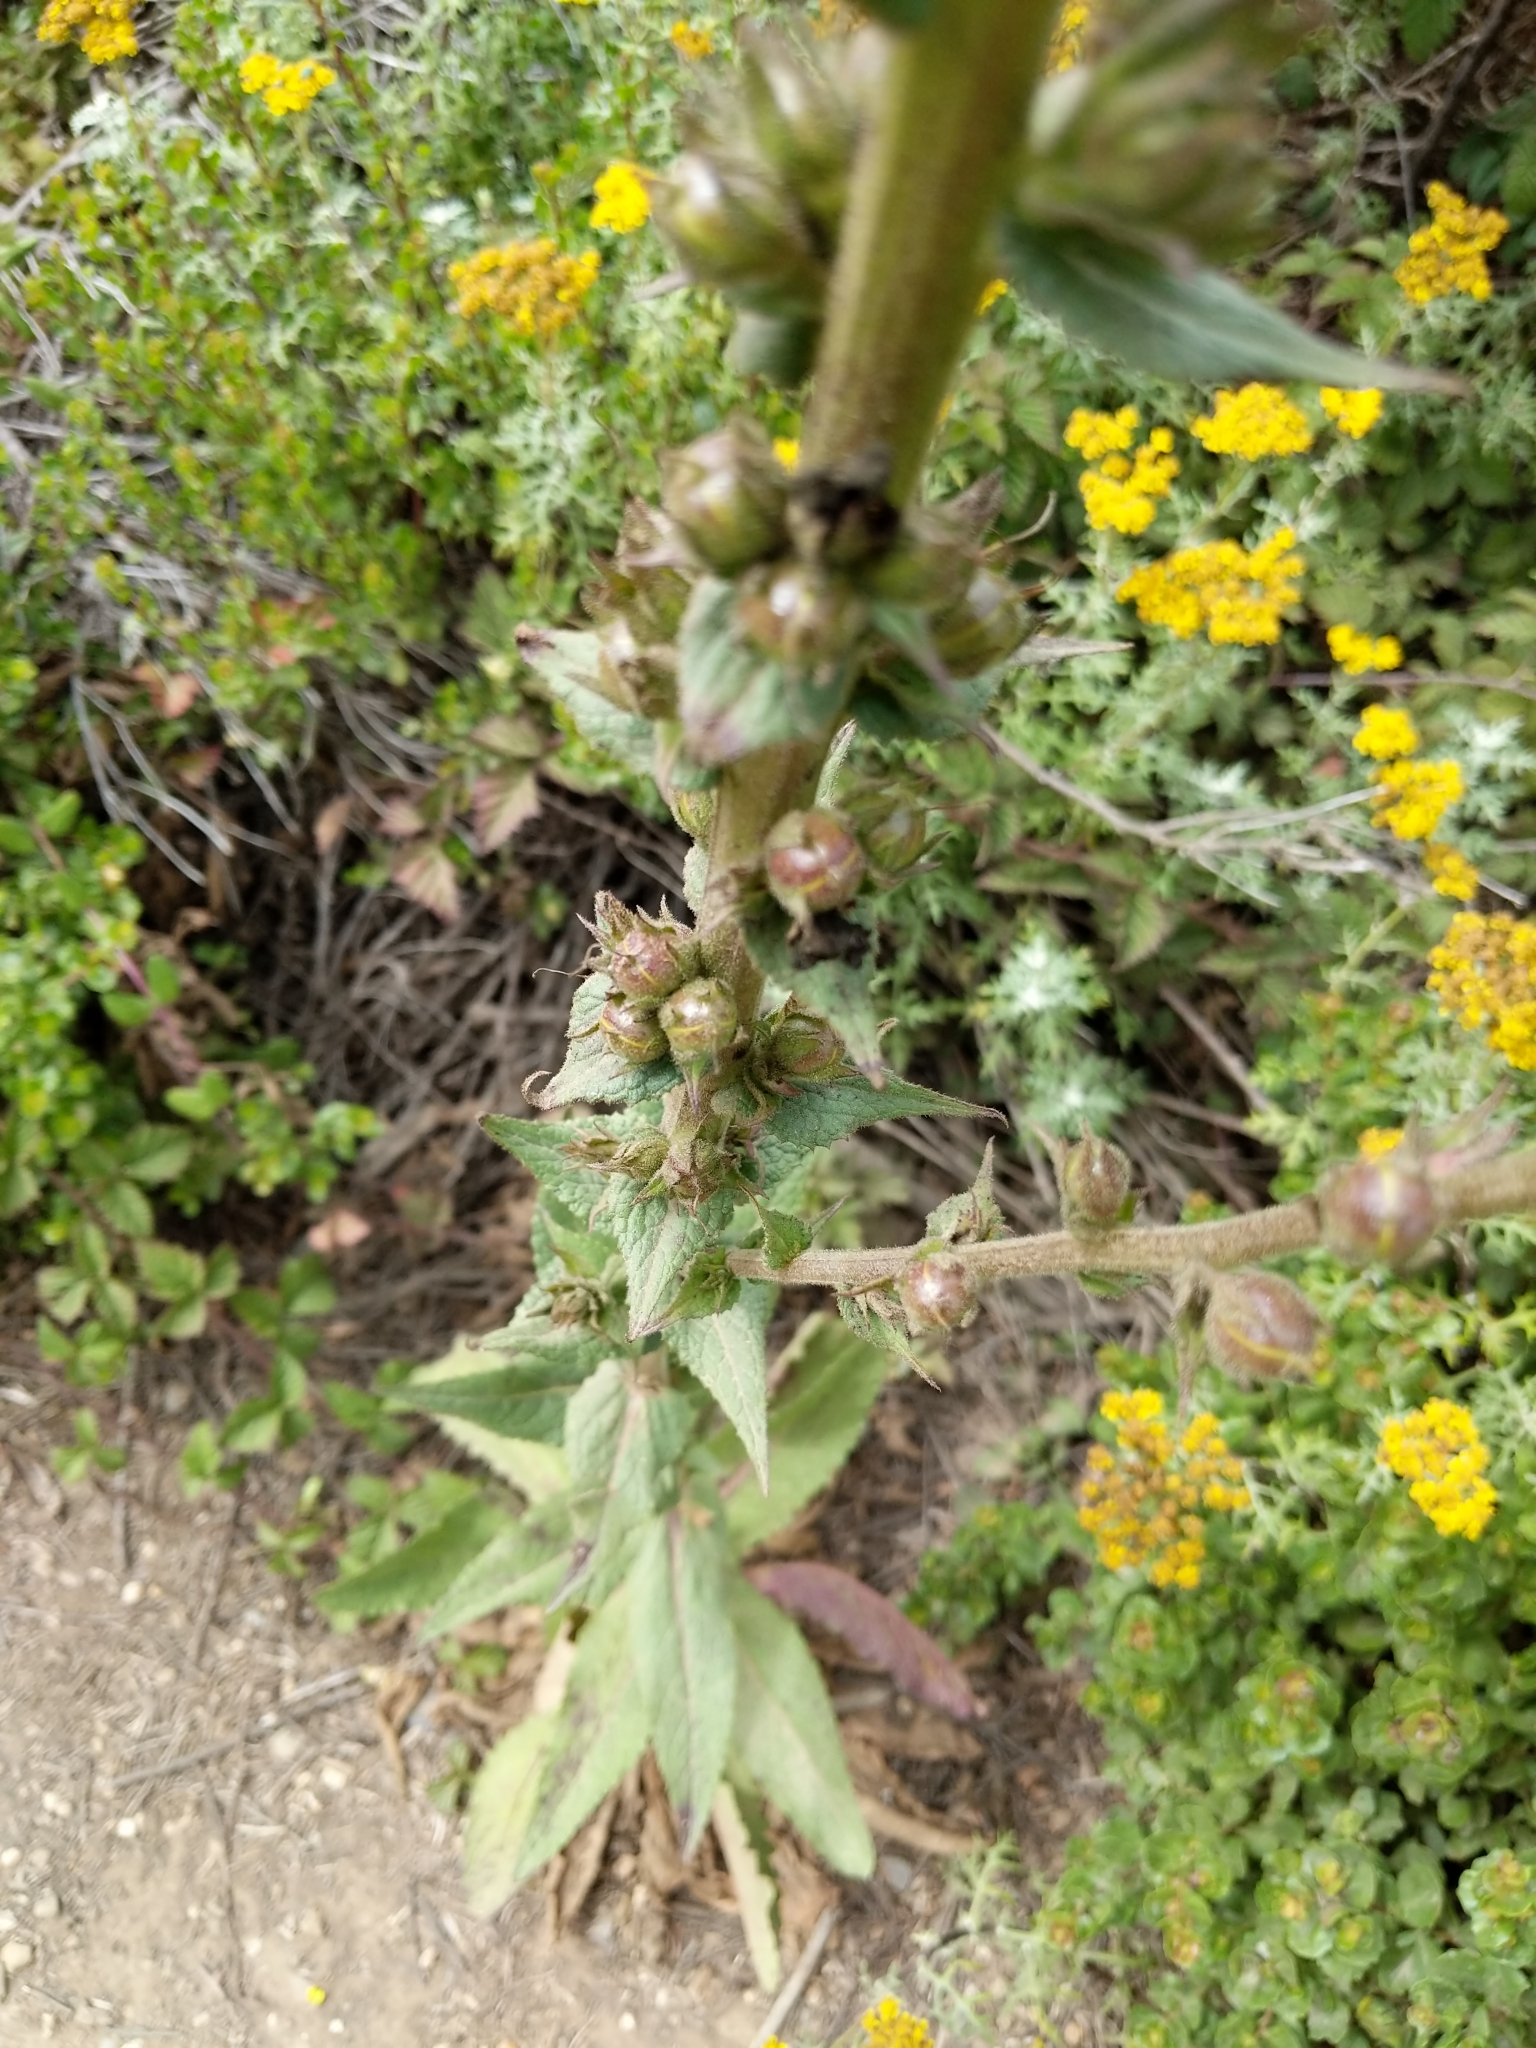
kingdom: Plantae
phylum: Tracheophyta
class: Magnoliopsida
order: Lamiales
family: Scrophulariaceae
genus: Verbascum
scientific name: Verbascum virgatum
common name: Twiggy mullein
